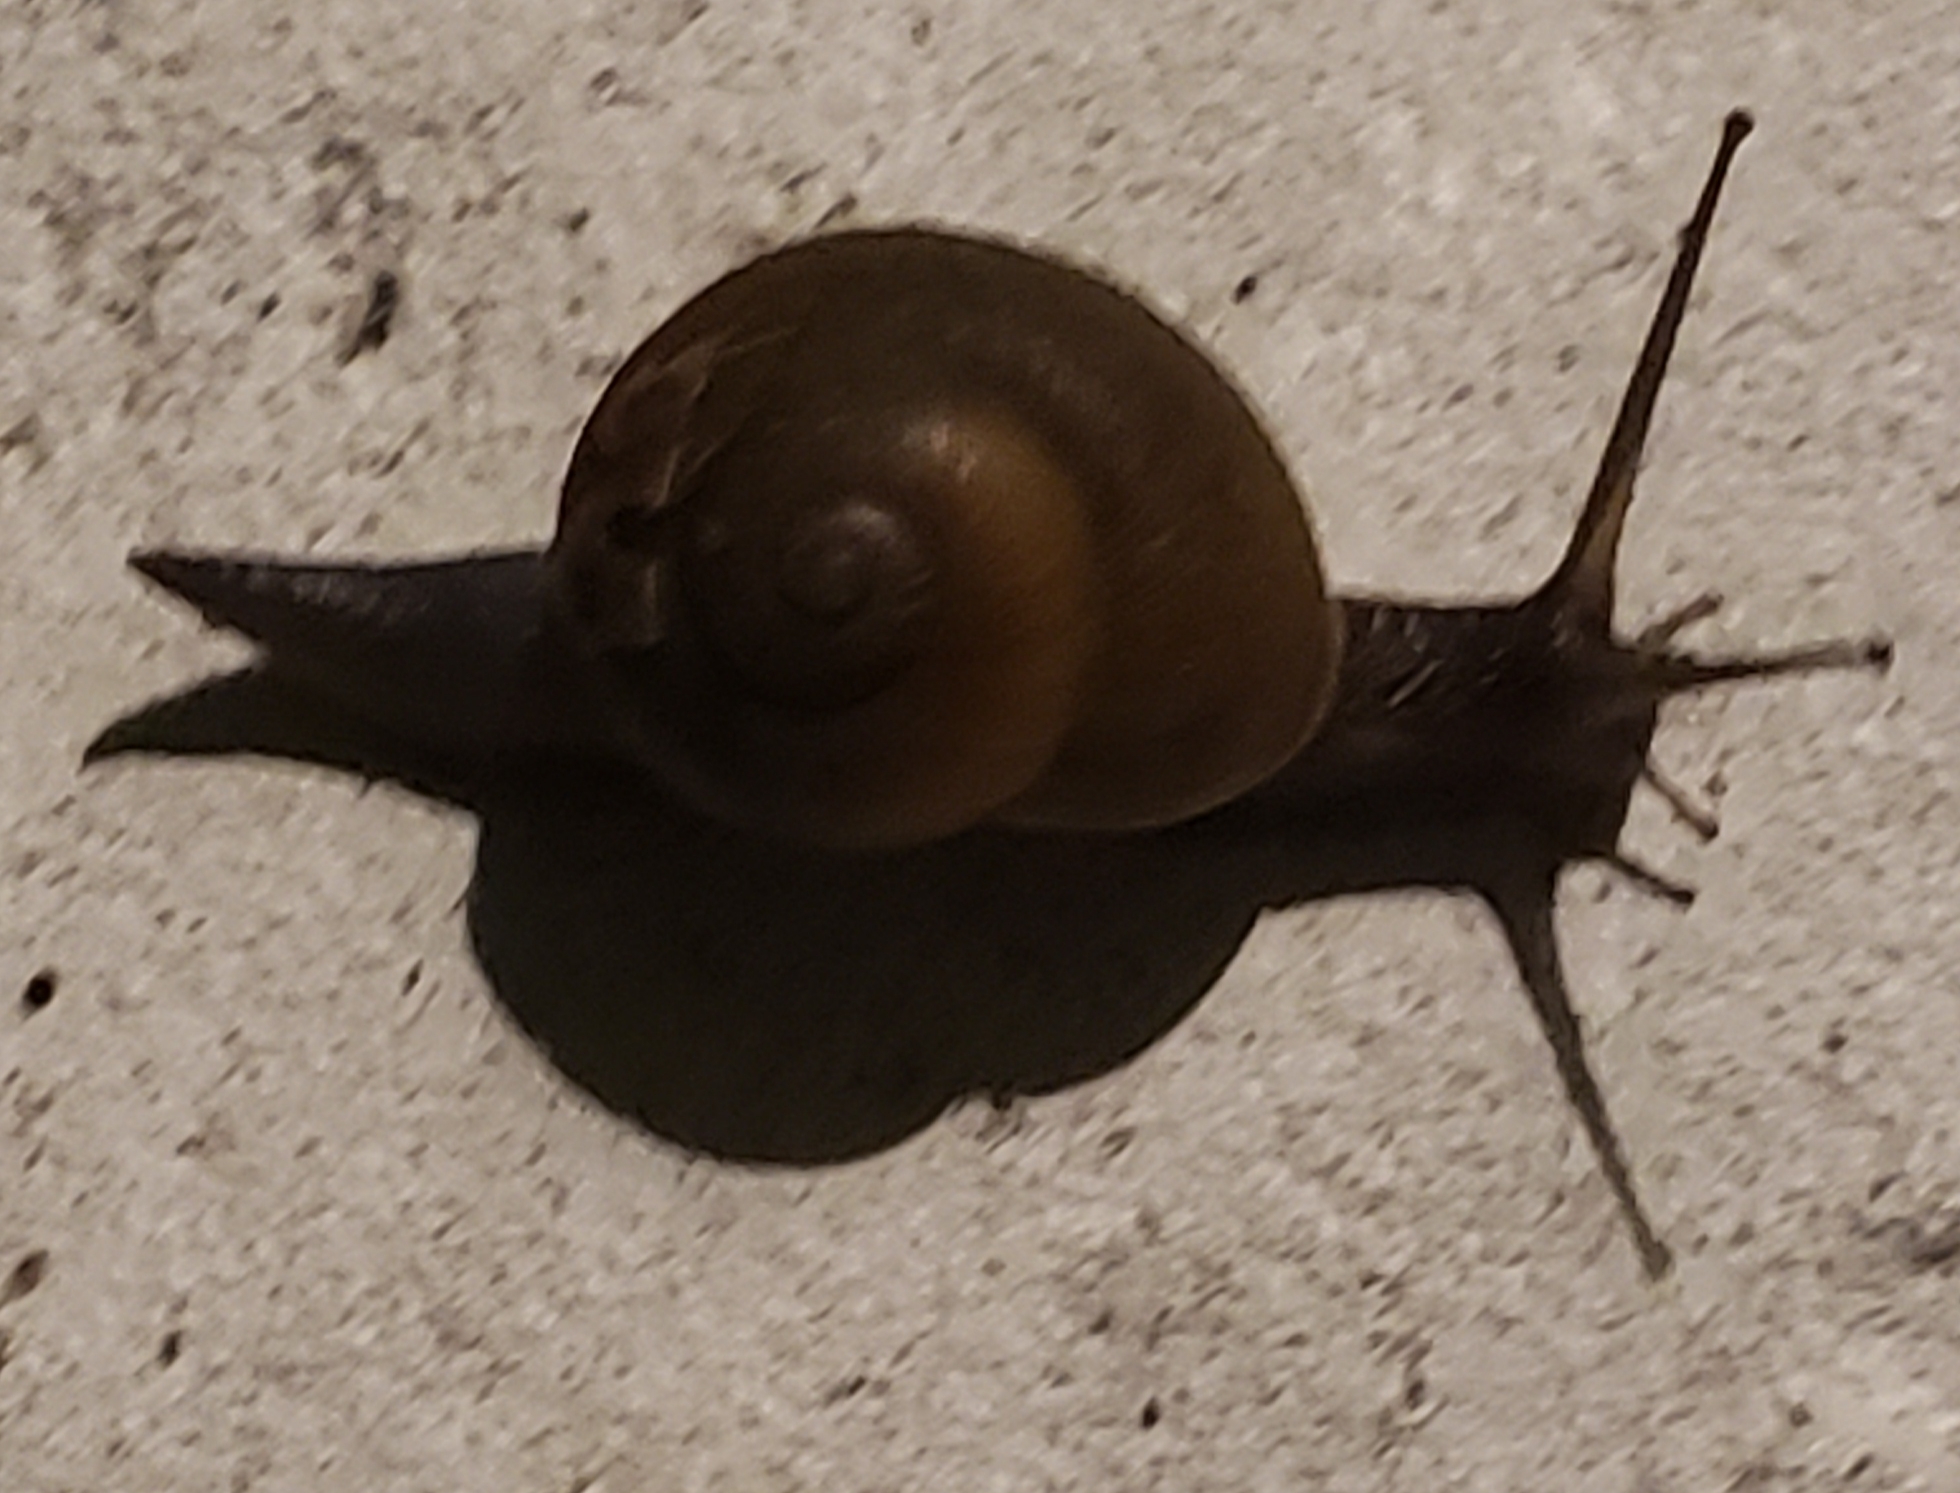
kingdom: Animalia
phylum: Mollusca
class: Gastropoda
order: Stylommatophora
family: Zachrysiidae
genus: Zachrysia
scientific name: Zachrysia provisoria
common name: Garden zachrysia
